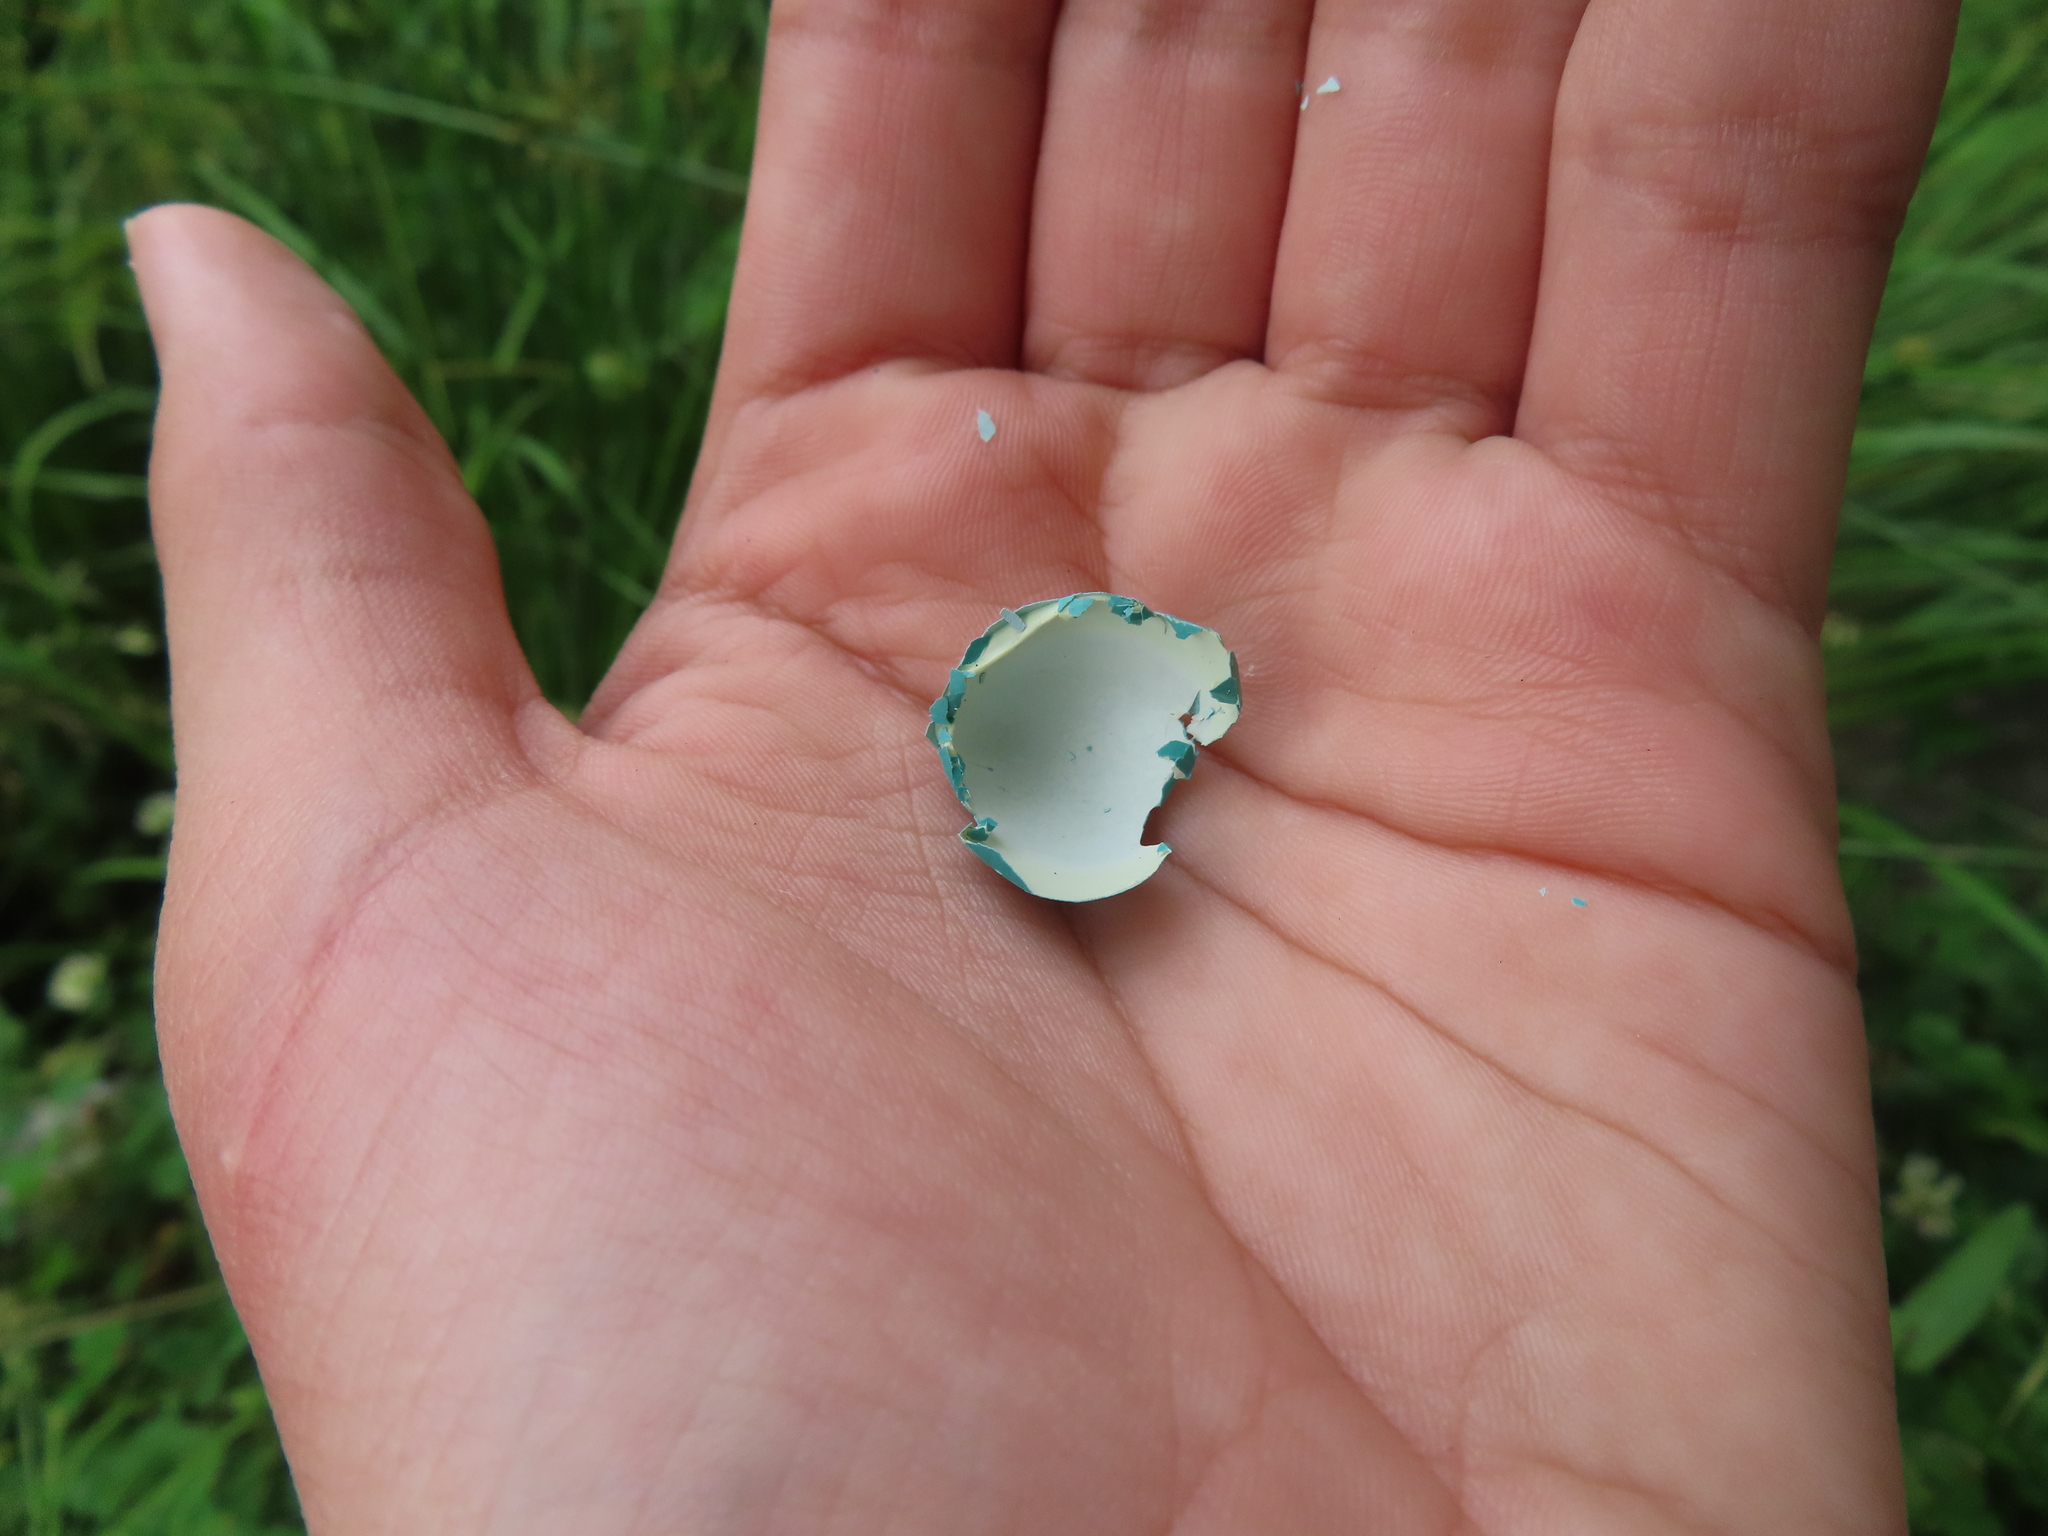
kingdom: Animalia
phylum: Chordata
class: Aves
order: Passeriformes
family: Turdidae
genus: Turdus
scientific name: Turdus migratorius
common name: American robin
